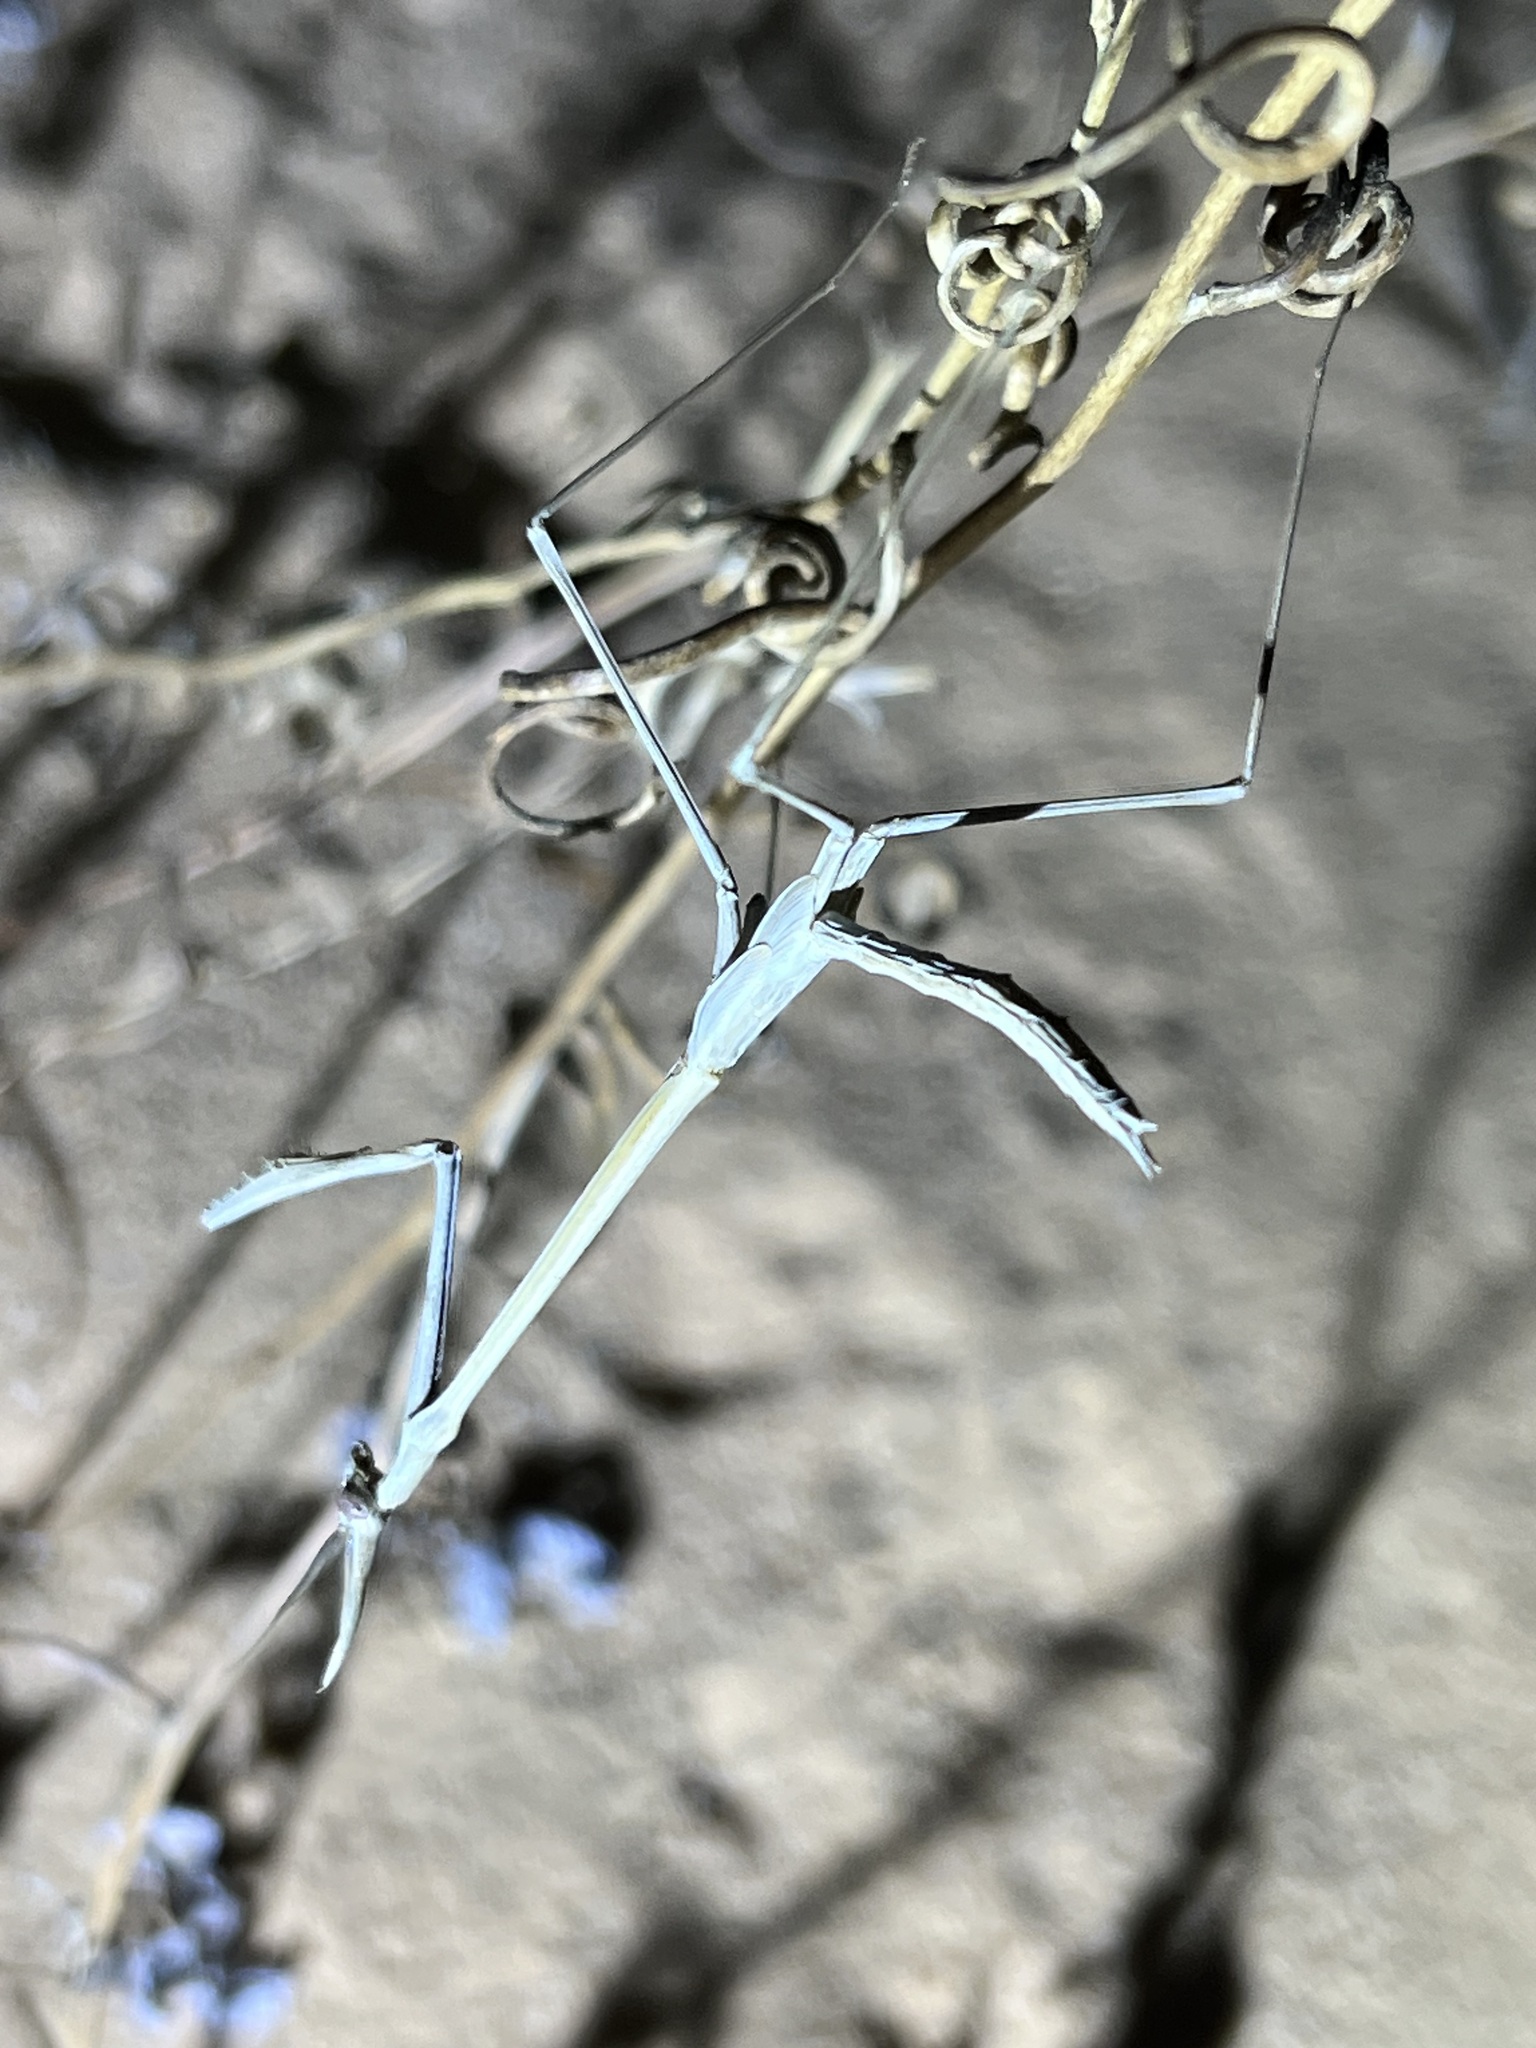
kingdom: Animalia
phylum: Arthropoda
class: Insecta
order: Mantodea
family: Empusidae
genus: Hypsicorypha
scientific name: Hypsicorypha gracilis
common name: Sublime conehead mantis
